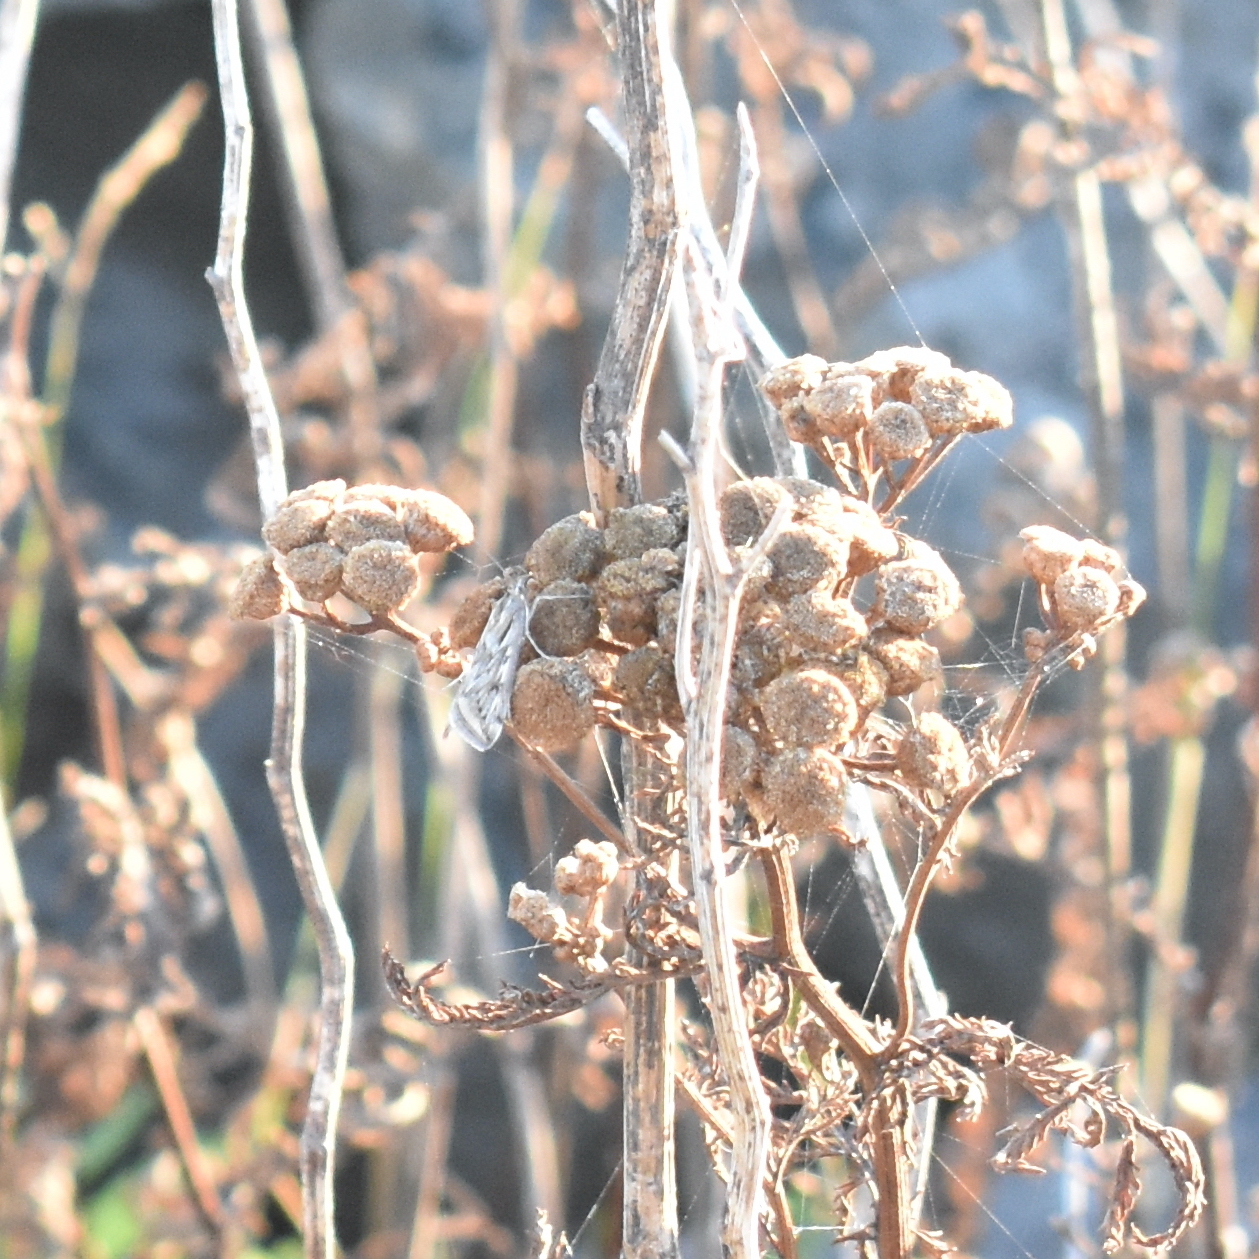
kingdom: Animalia
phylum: Arthropoda
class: Insecta
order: Lepidoptera
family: Crambidae
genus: Loxostege
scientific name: Loxostege cereralis
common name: Alfalfa webworm moth
